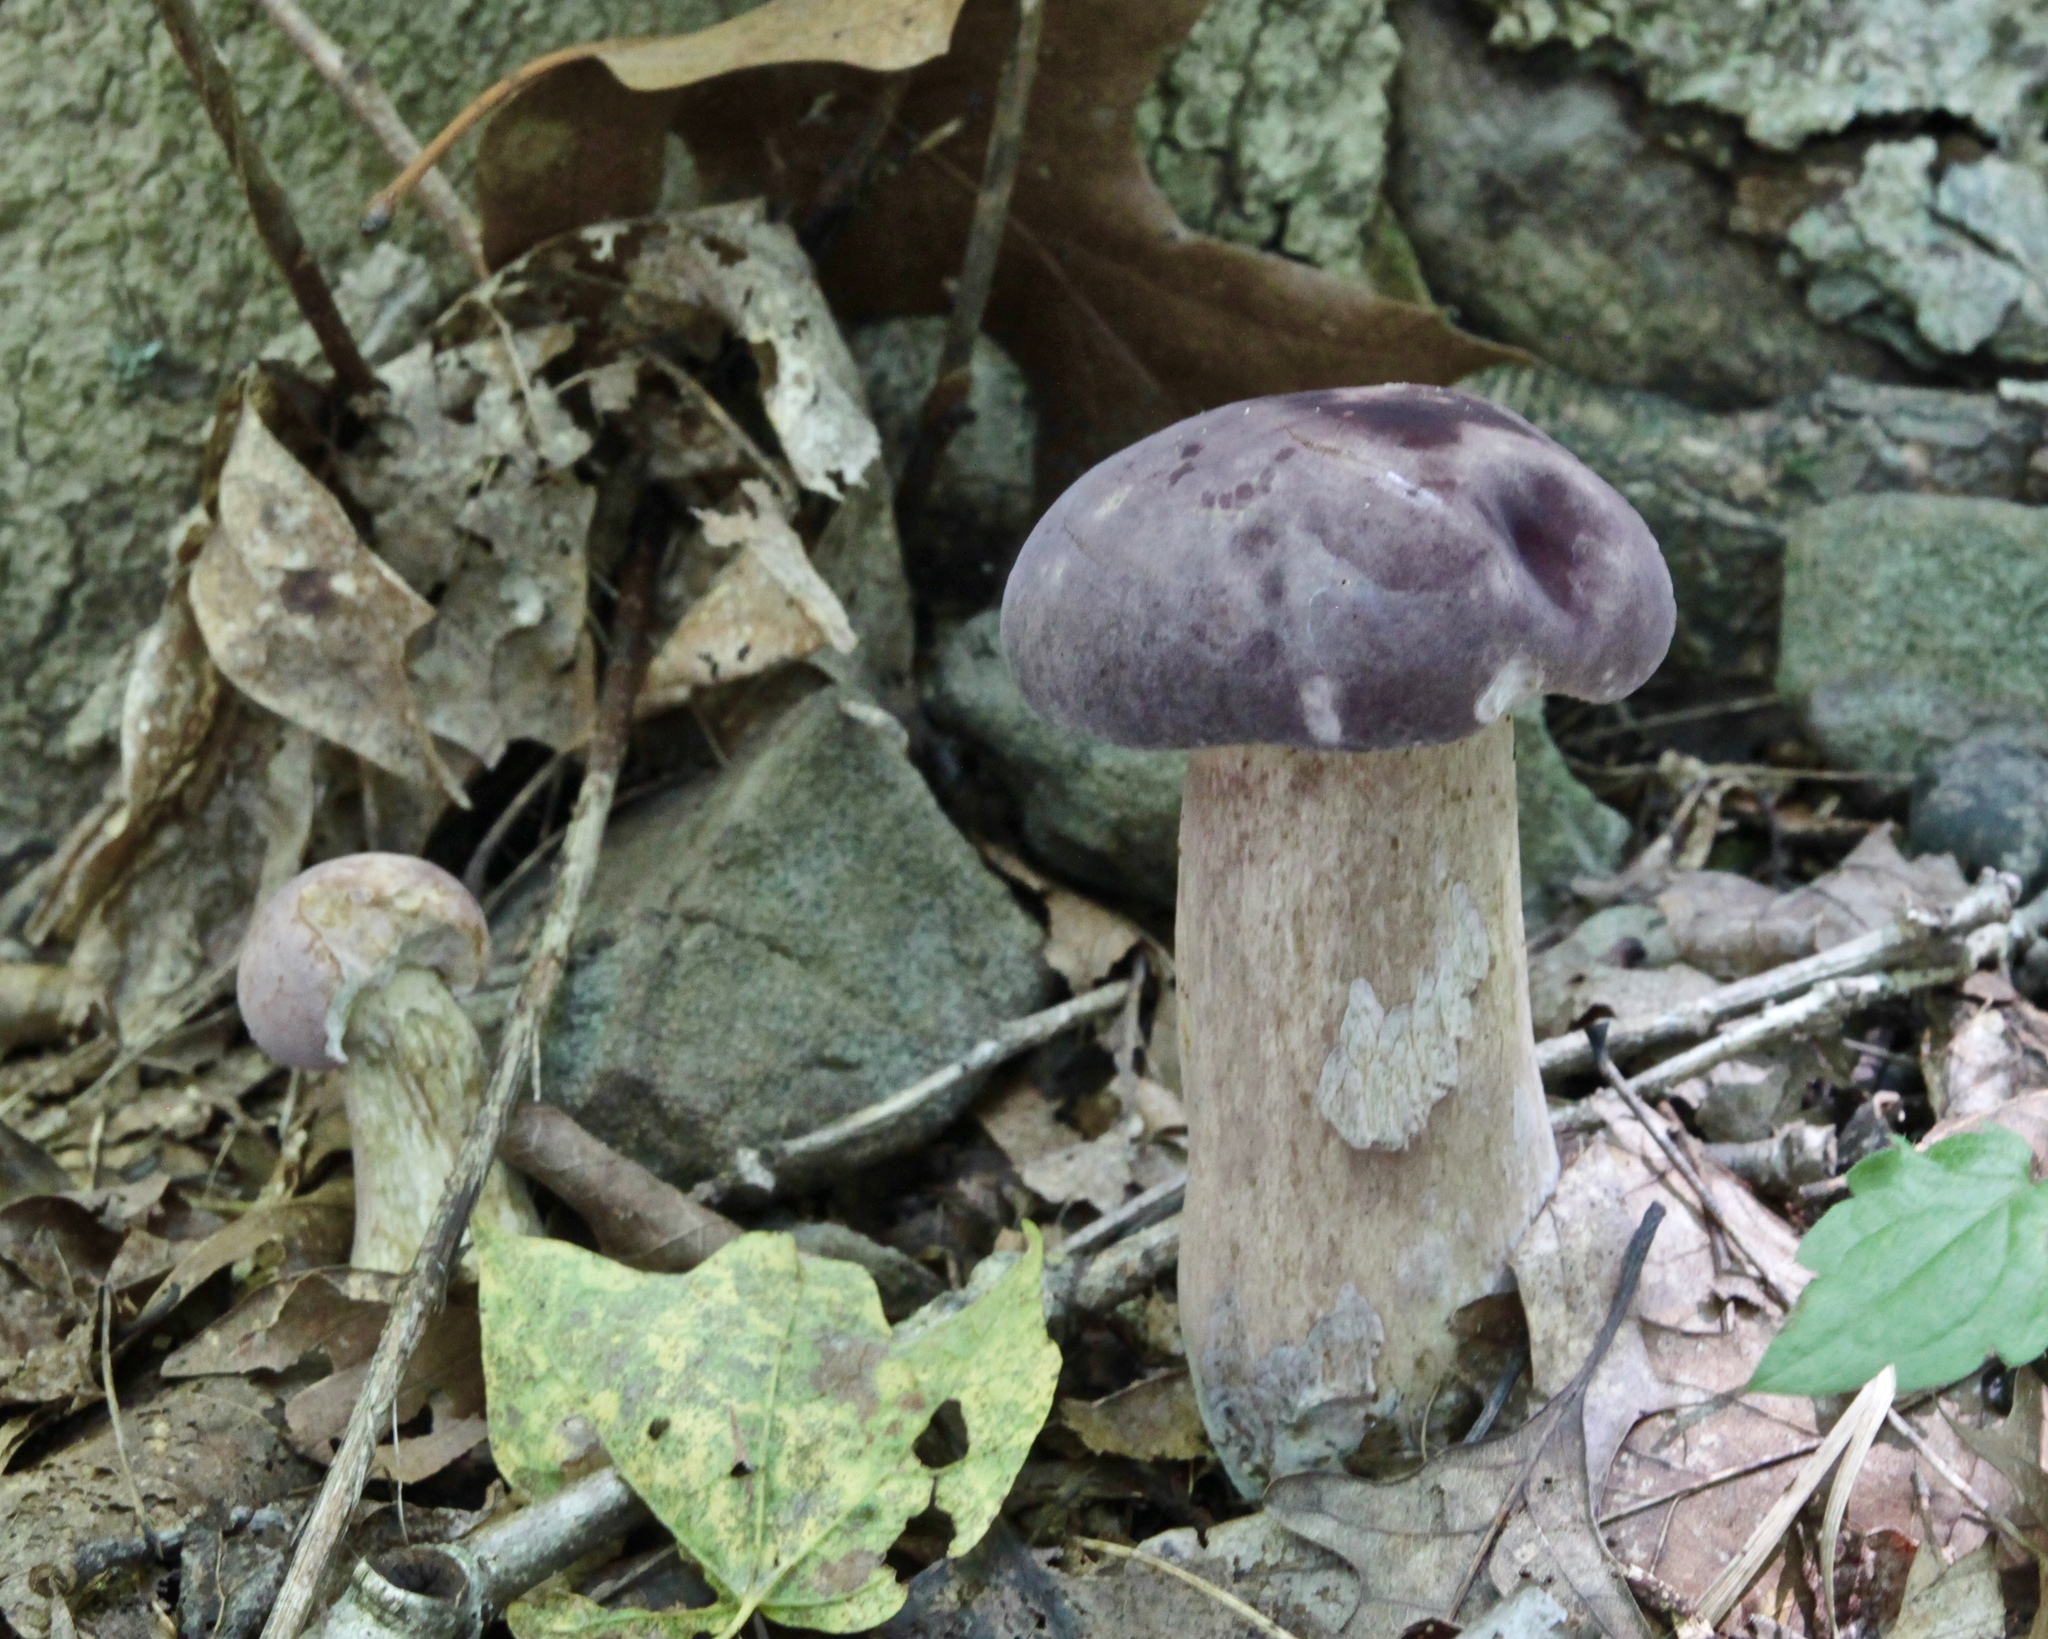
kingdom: Fungi
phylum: Basidiomycota
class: Agaricomycetes
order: Boletales
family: Boletaceae
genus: Tylopilus
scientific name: Tylopilus rubrobrunneus
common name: Reddish brown bitter bolete
